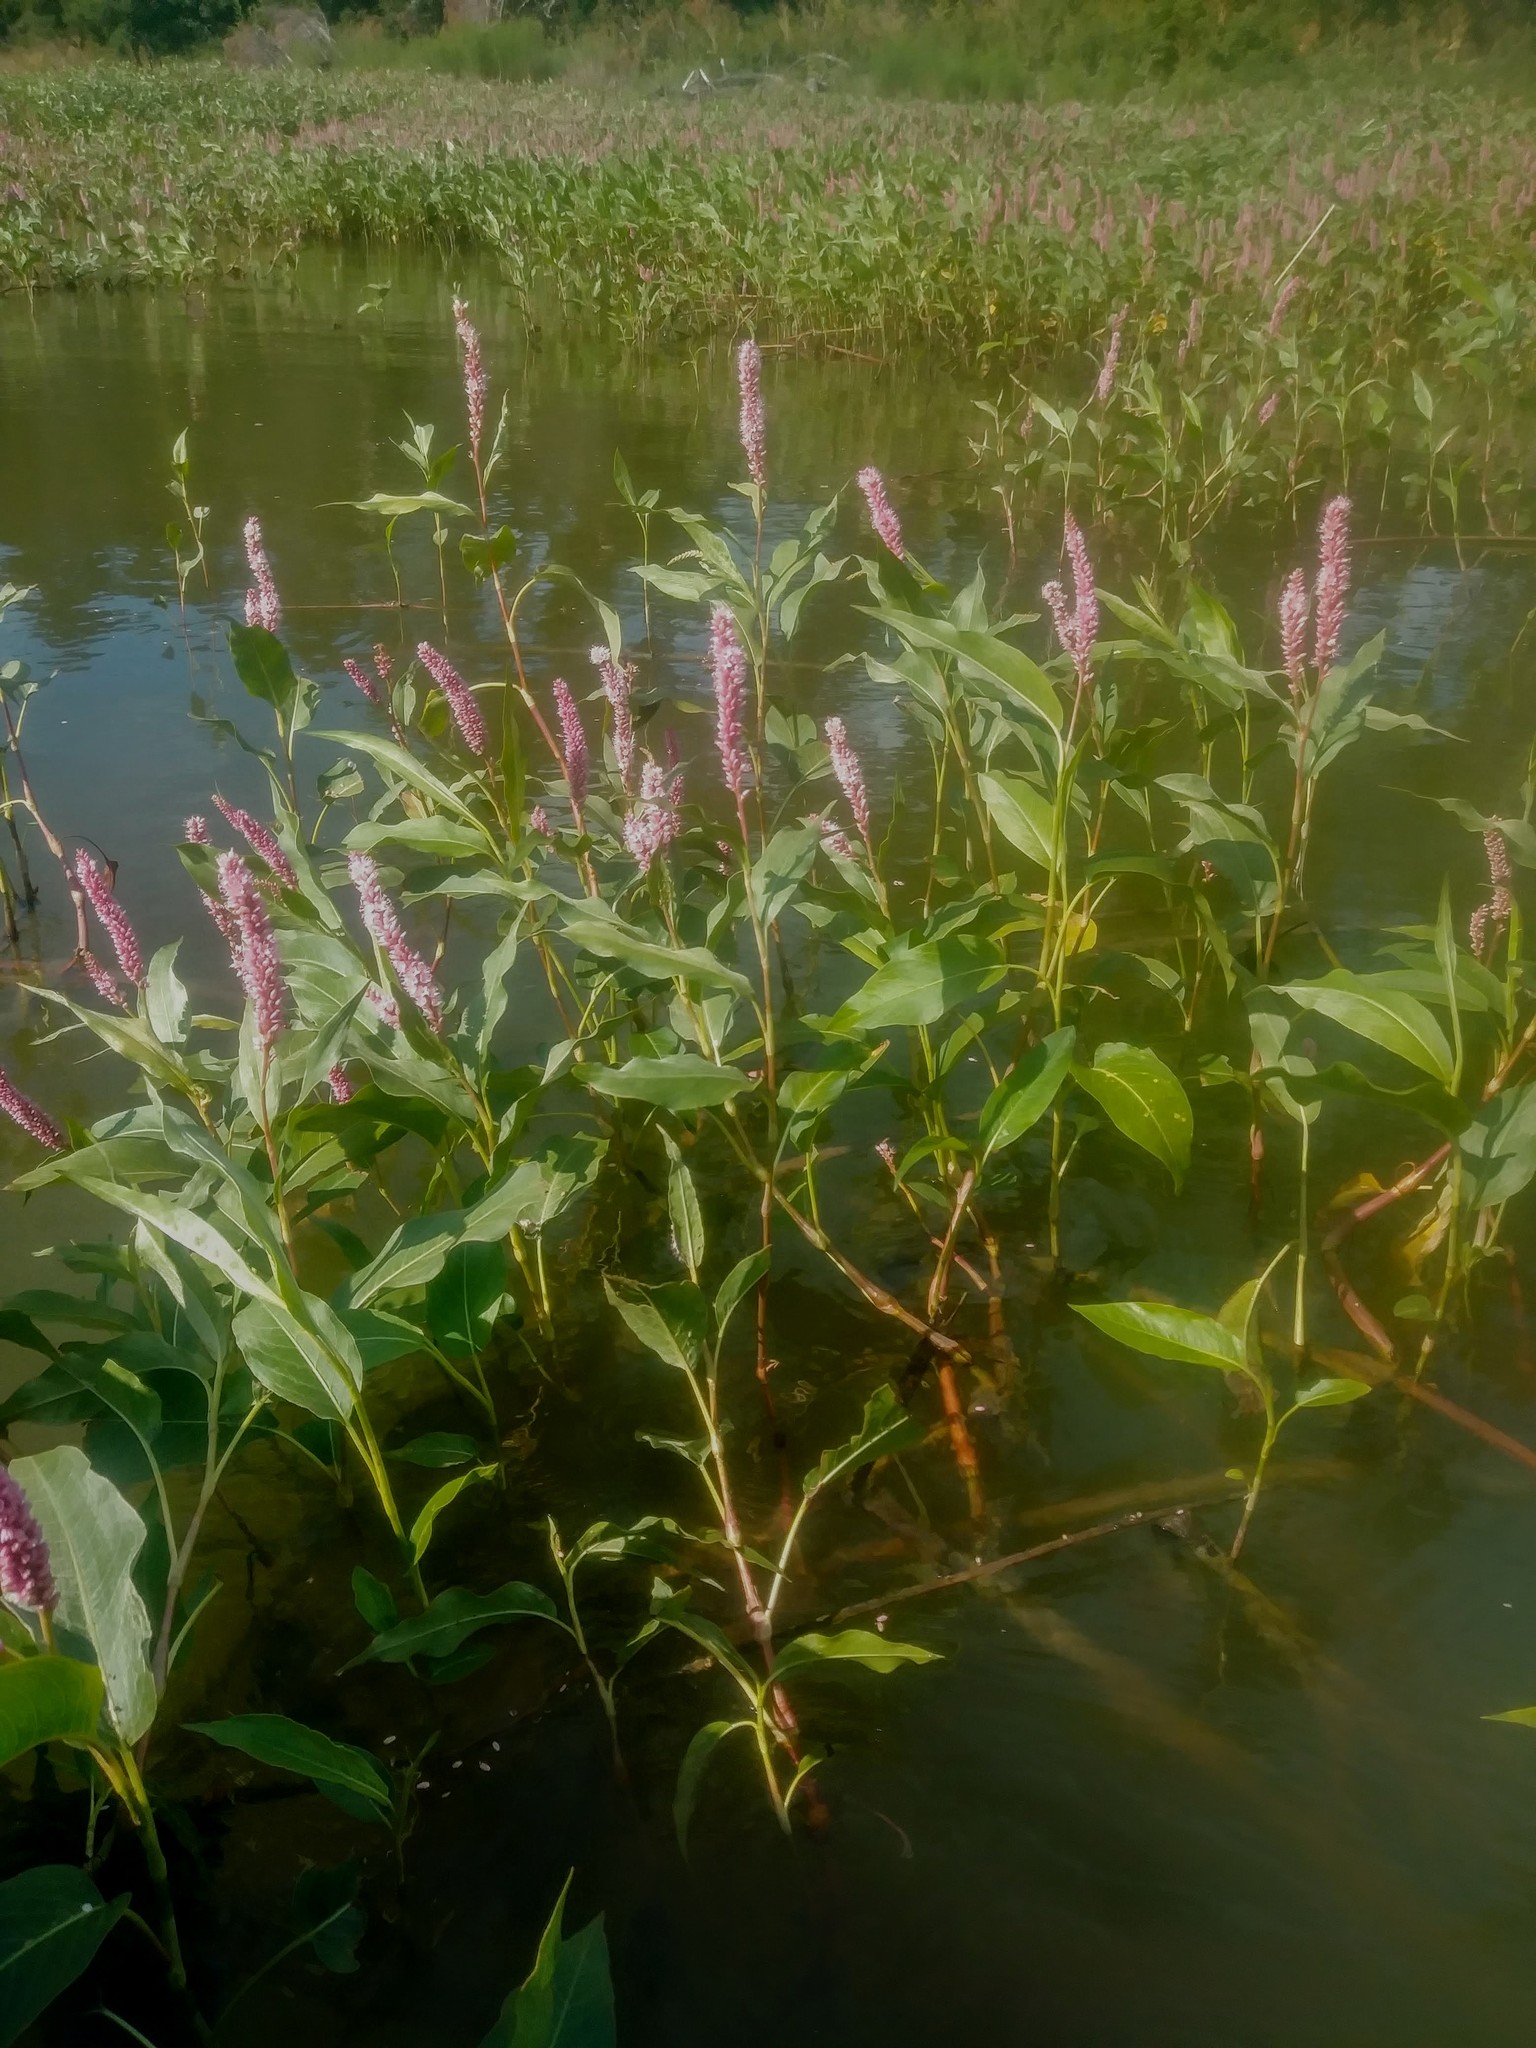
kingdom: Plantae
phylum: Tracheophyta
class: Magnoliopsida
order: Caryophyllales
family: Polygonaceae
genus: Persicaria
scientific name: Persicaria amphibia
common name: Amphibious bistort
